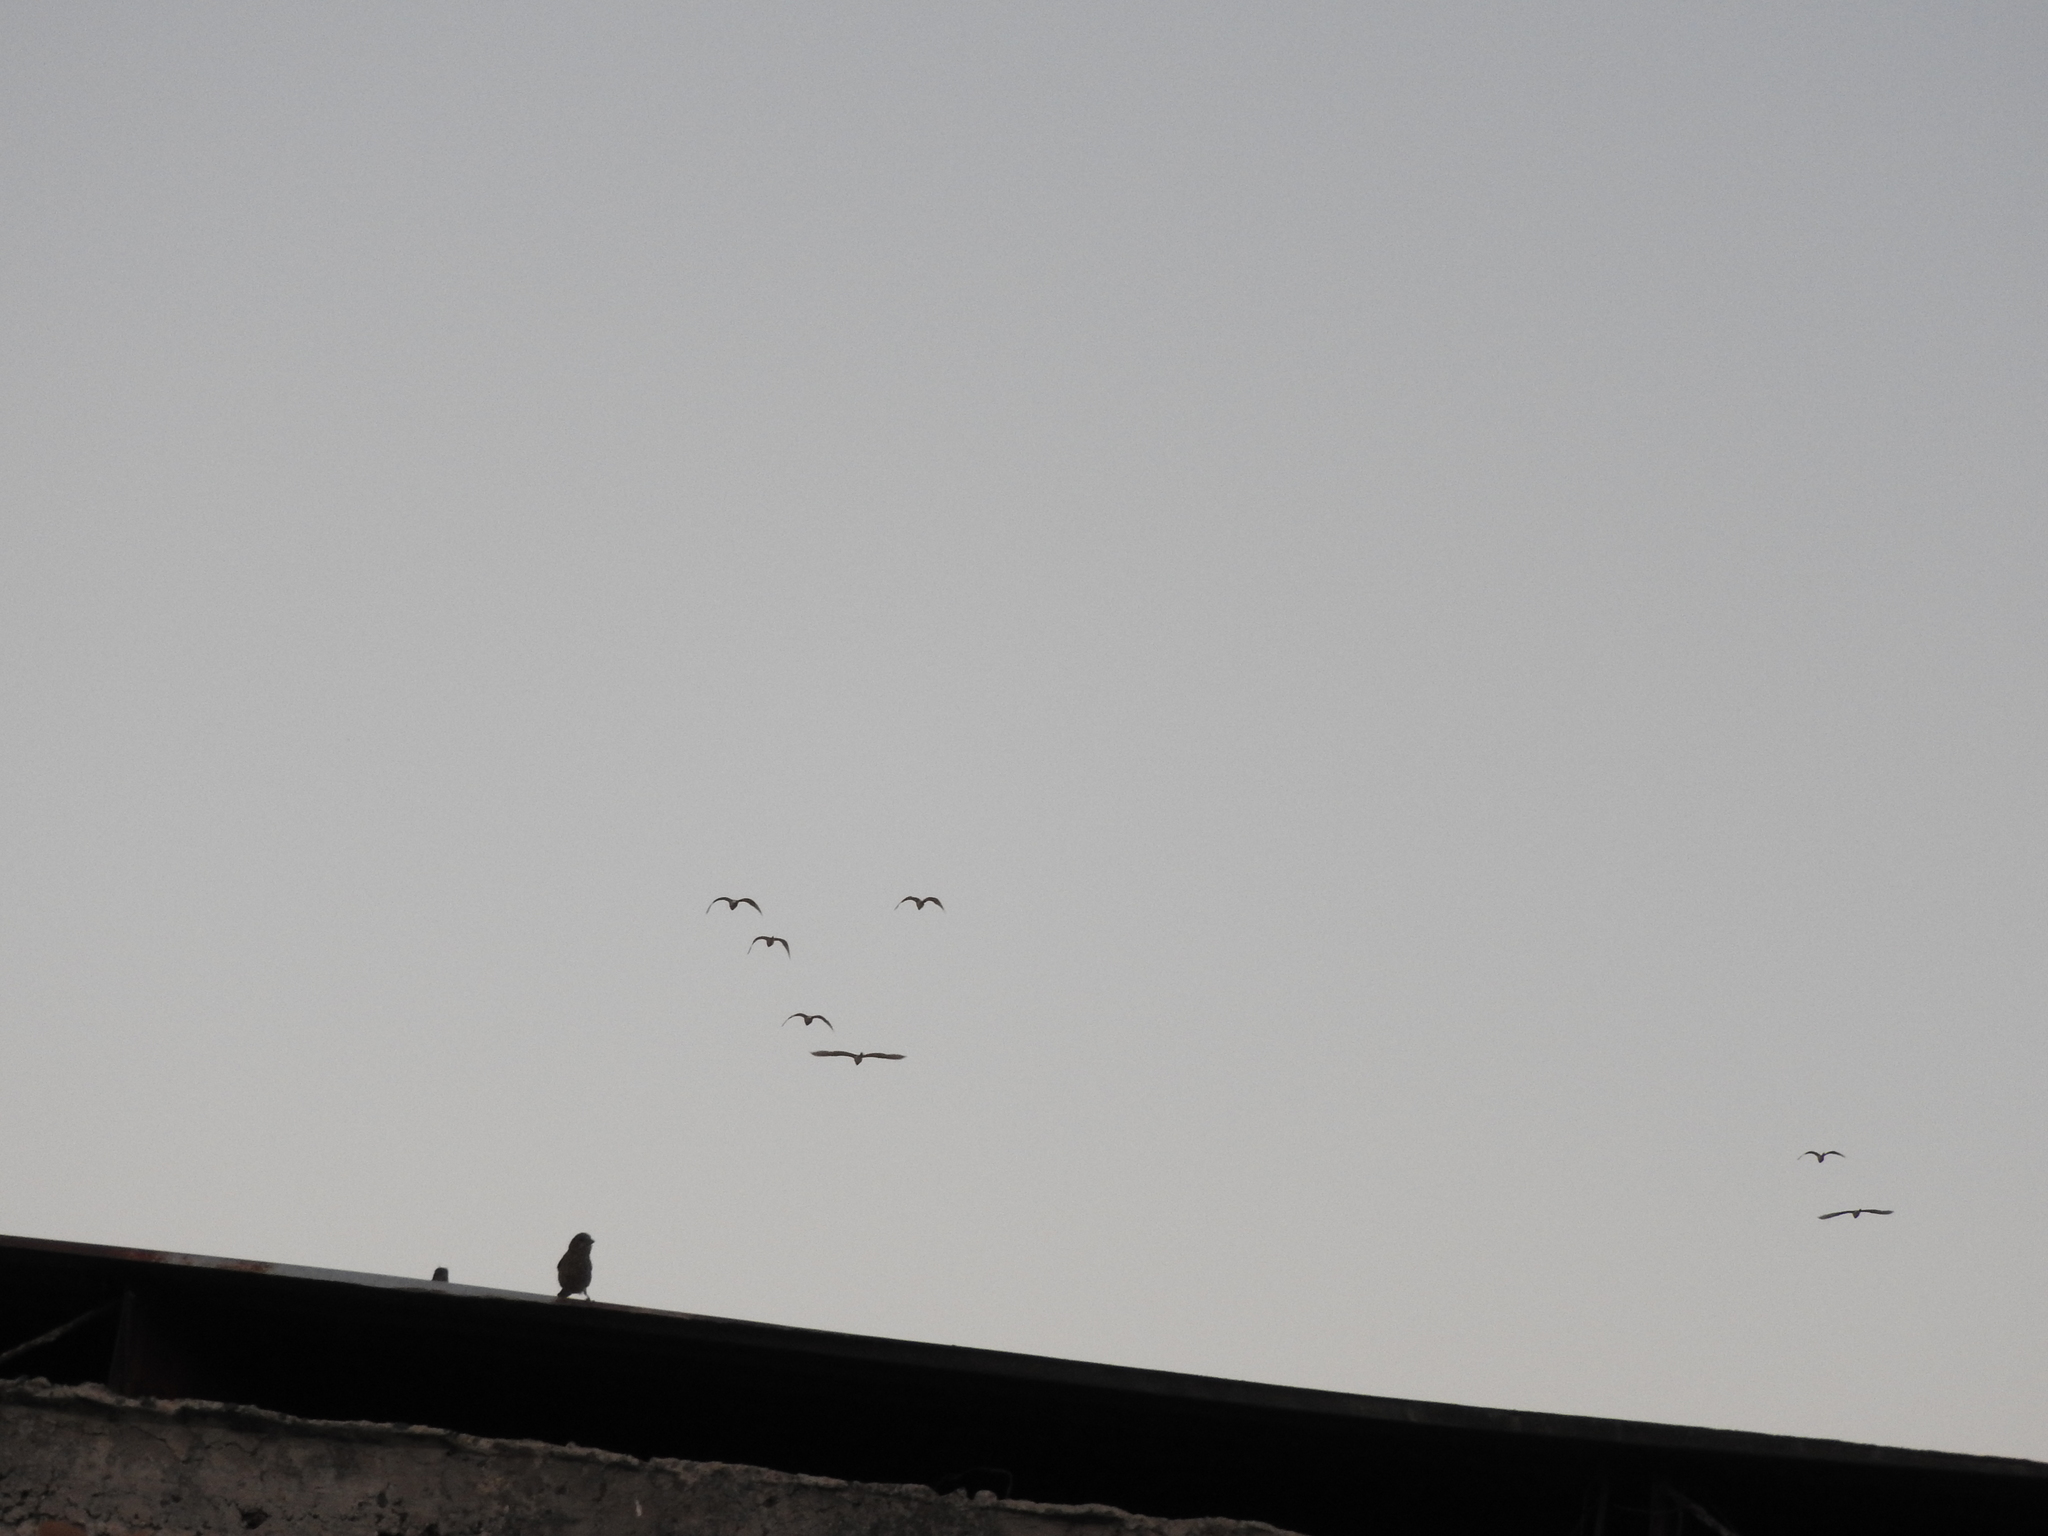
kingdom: Animalia
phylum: Chordata
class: Aves
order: Passeriformes
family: Fringillidae
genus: Haemorhous
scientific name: Haemorhous mexicanus
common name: House finch
